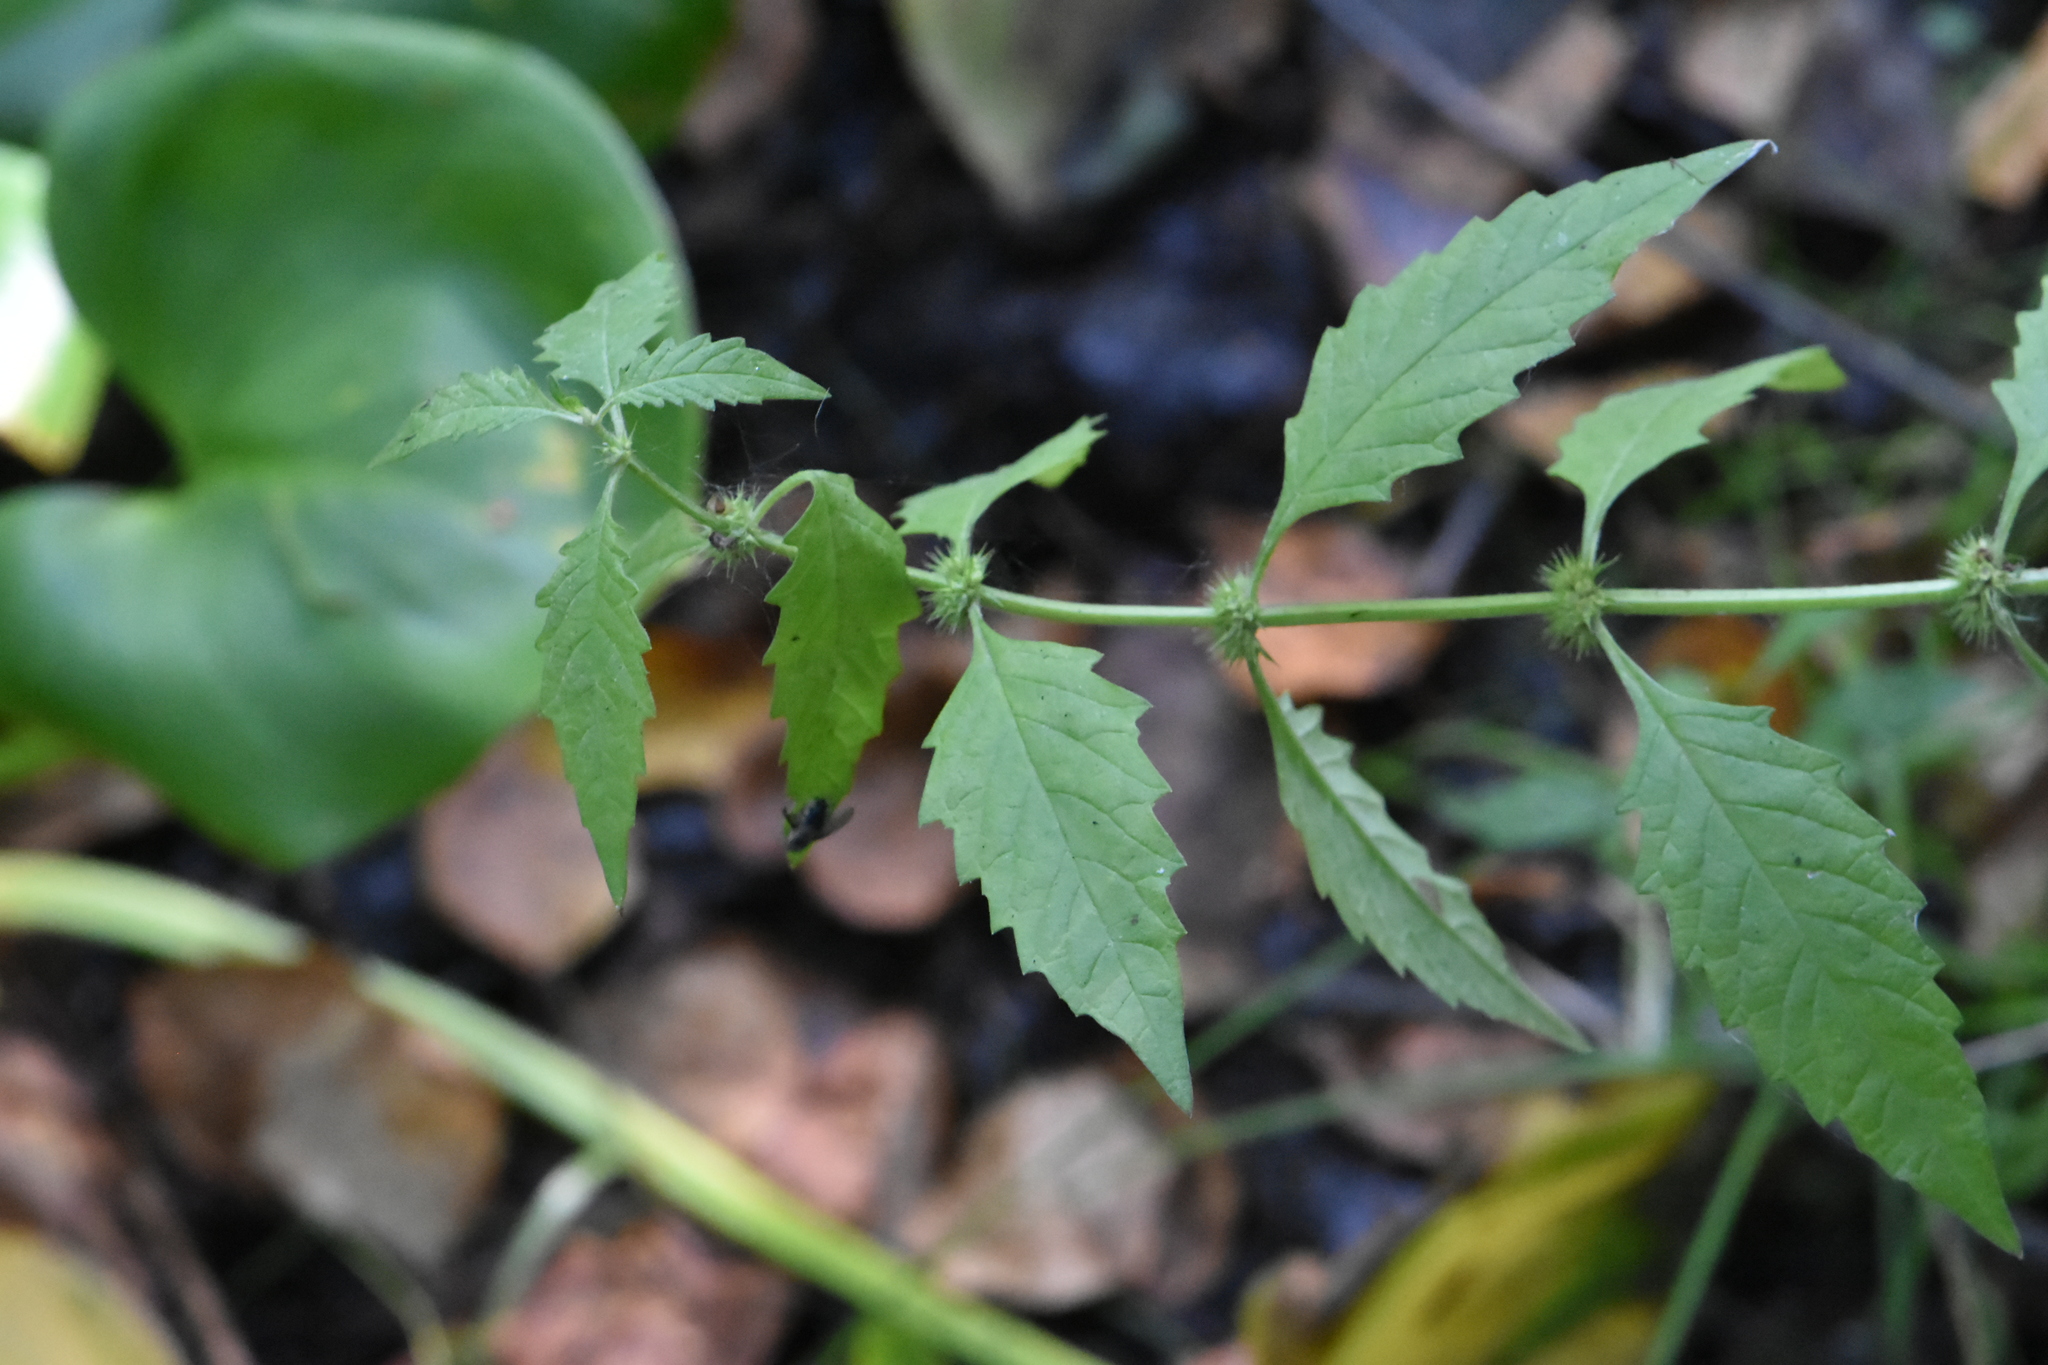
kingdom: Plantae
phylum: Tracheophyta
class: Magnoliopsida
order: Lamiales
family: Lamiaceae
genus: Lycopus
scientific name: Lycopus europaeus
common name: European bugleweed
